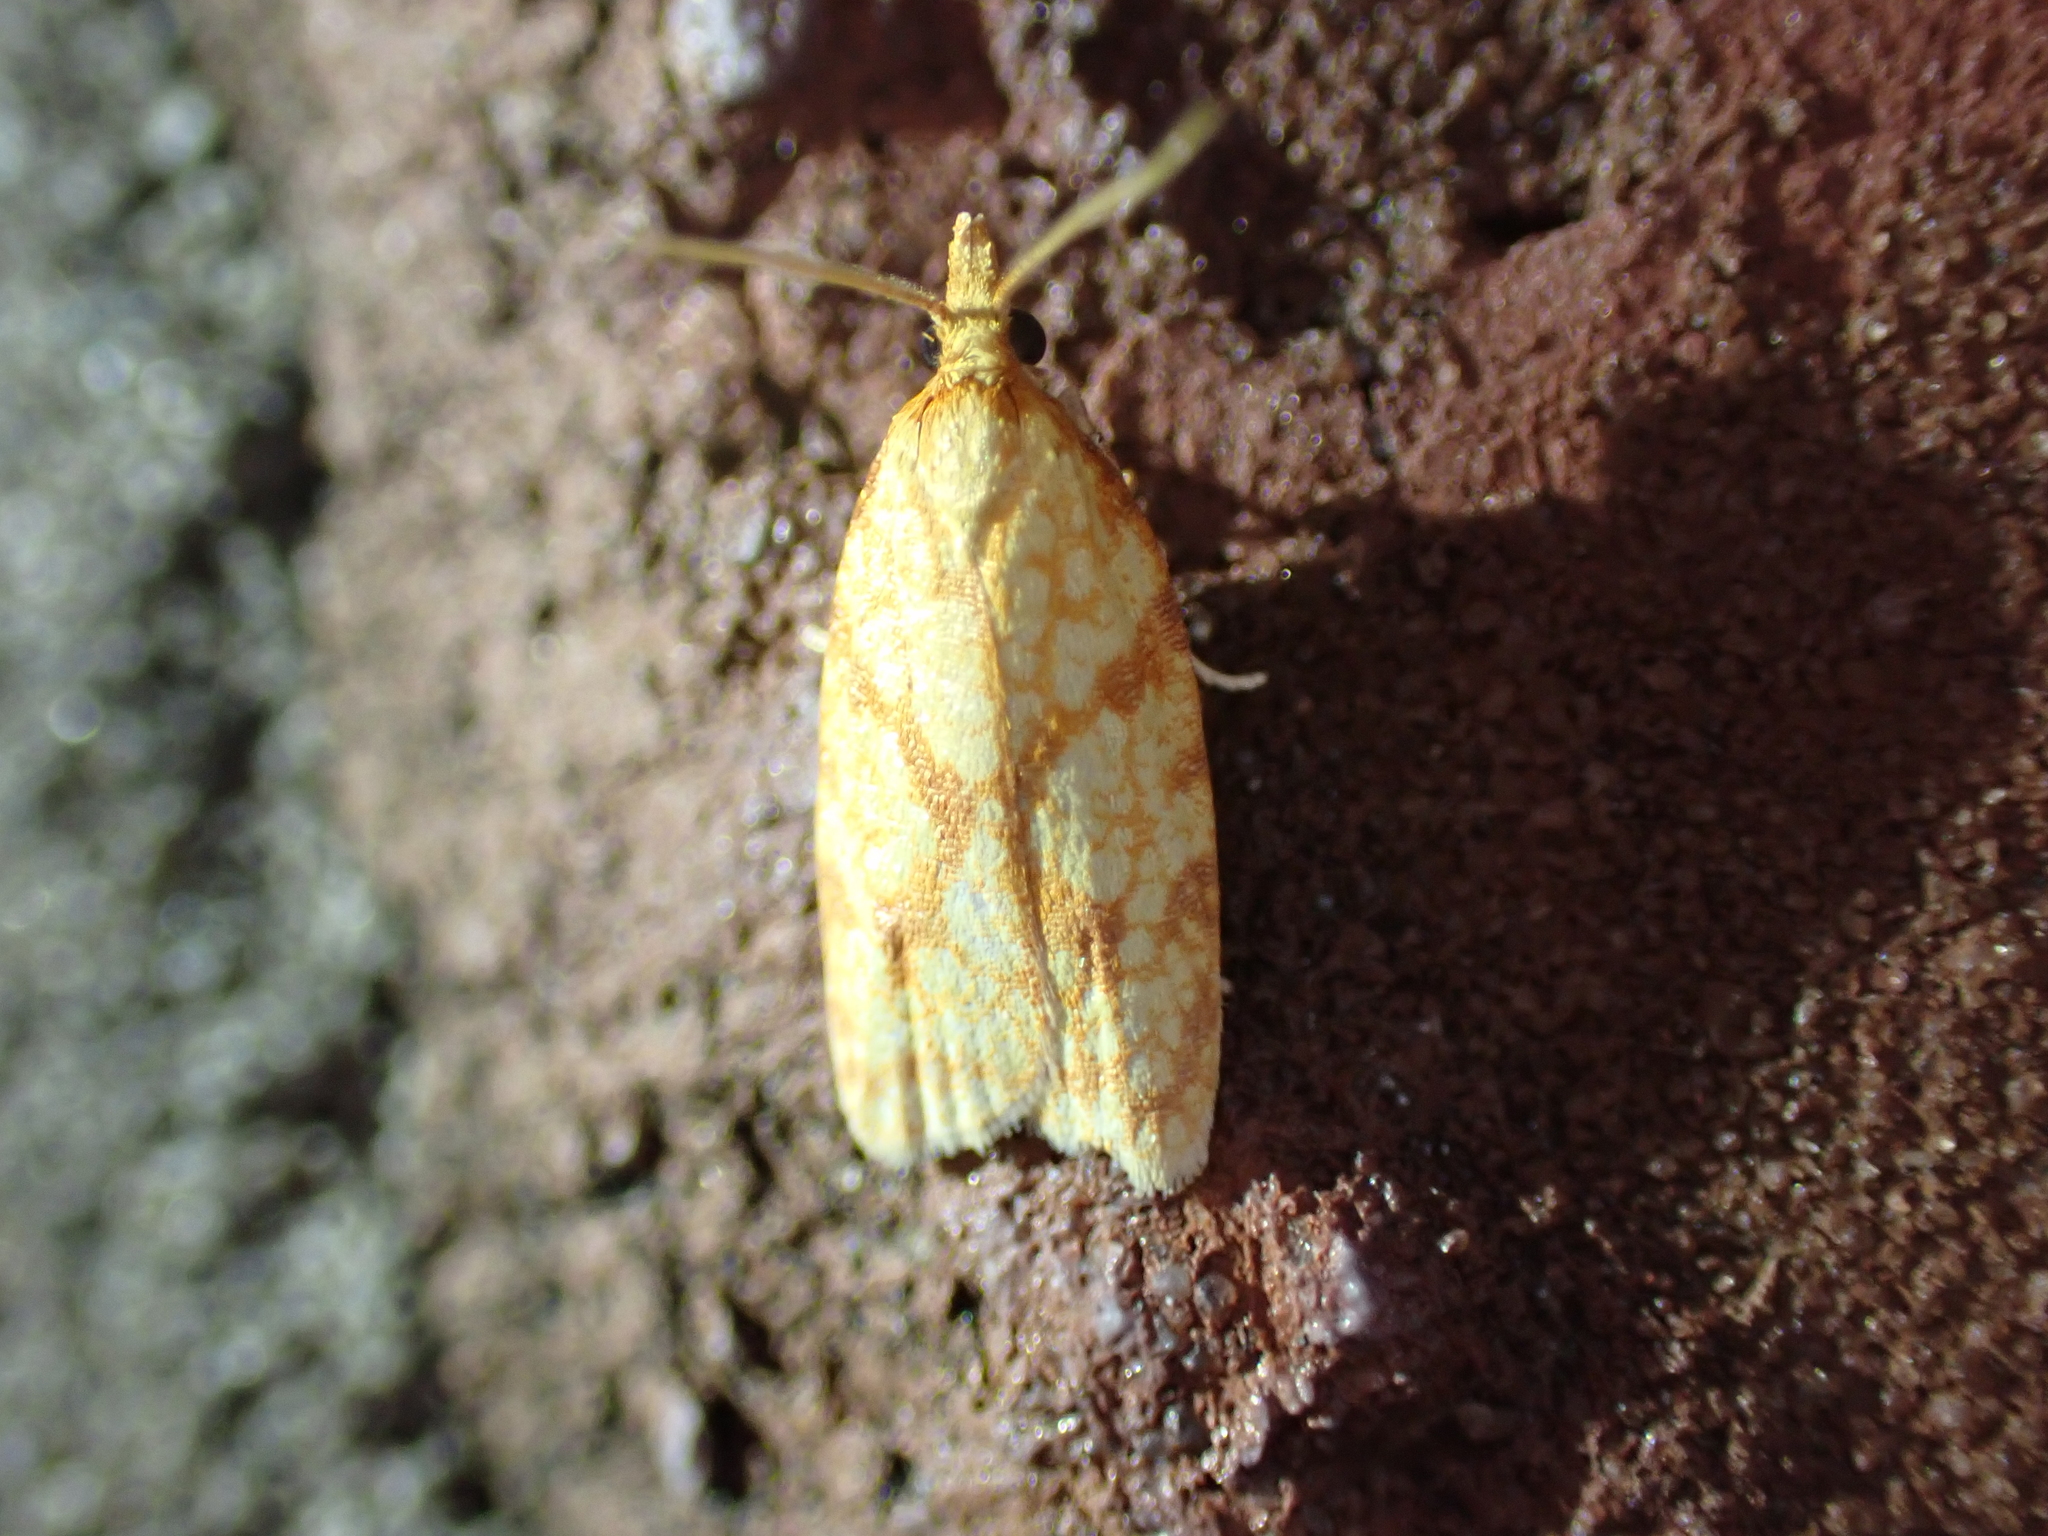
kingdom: Animalia
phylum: Arthropoda
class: Insecta
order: Lepidoptera
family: Tortricidae
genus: Sparganothis
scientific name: Sparganothis sulfureana
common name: Sparganothis fruitworm moth
